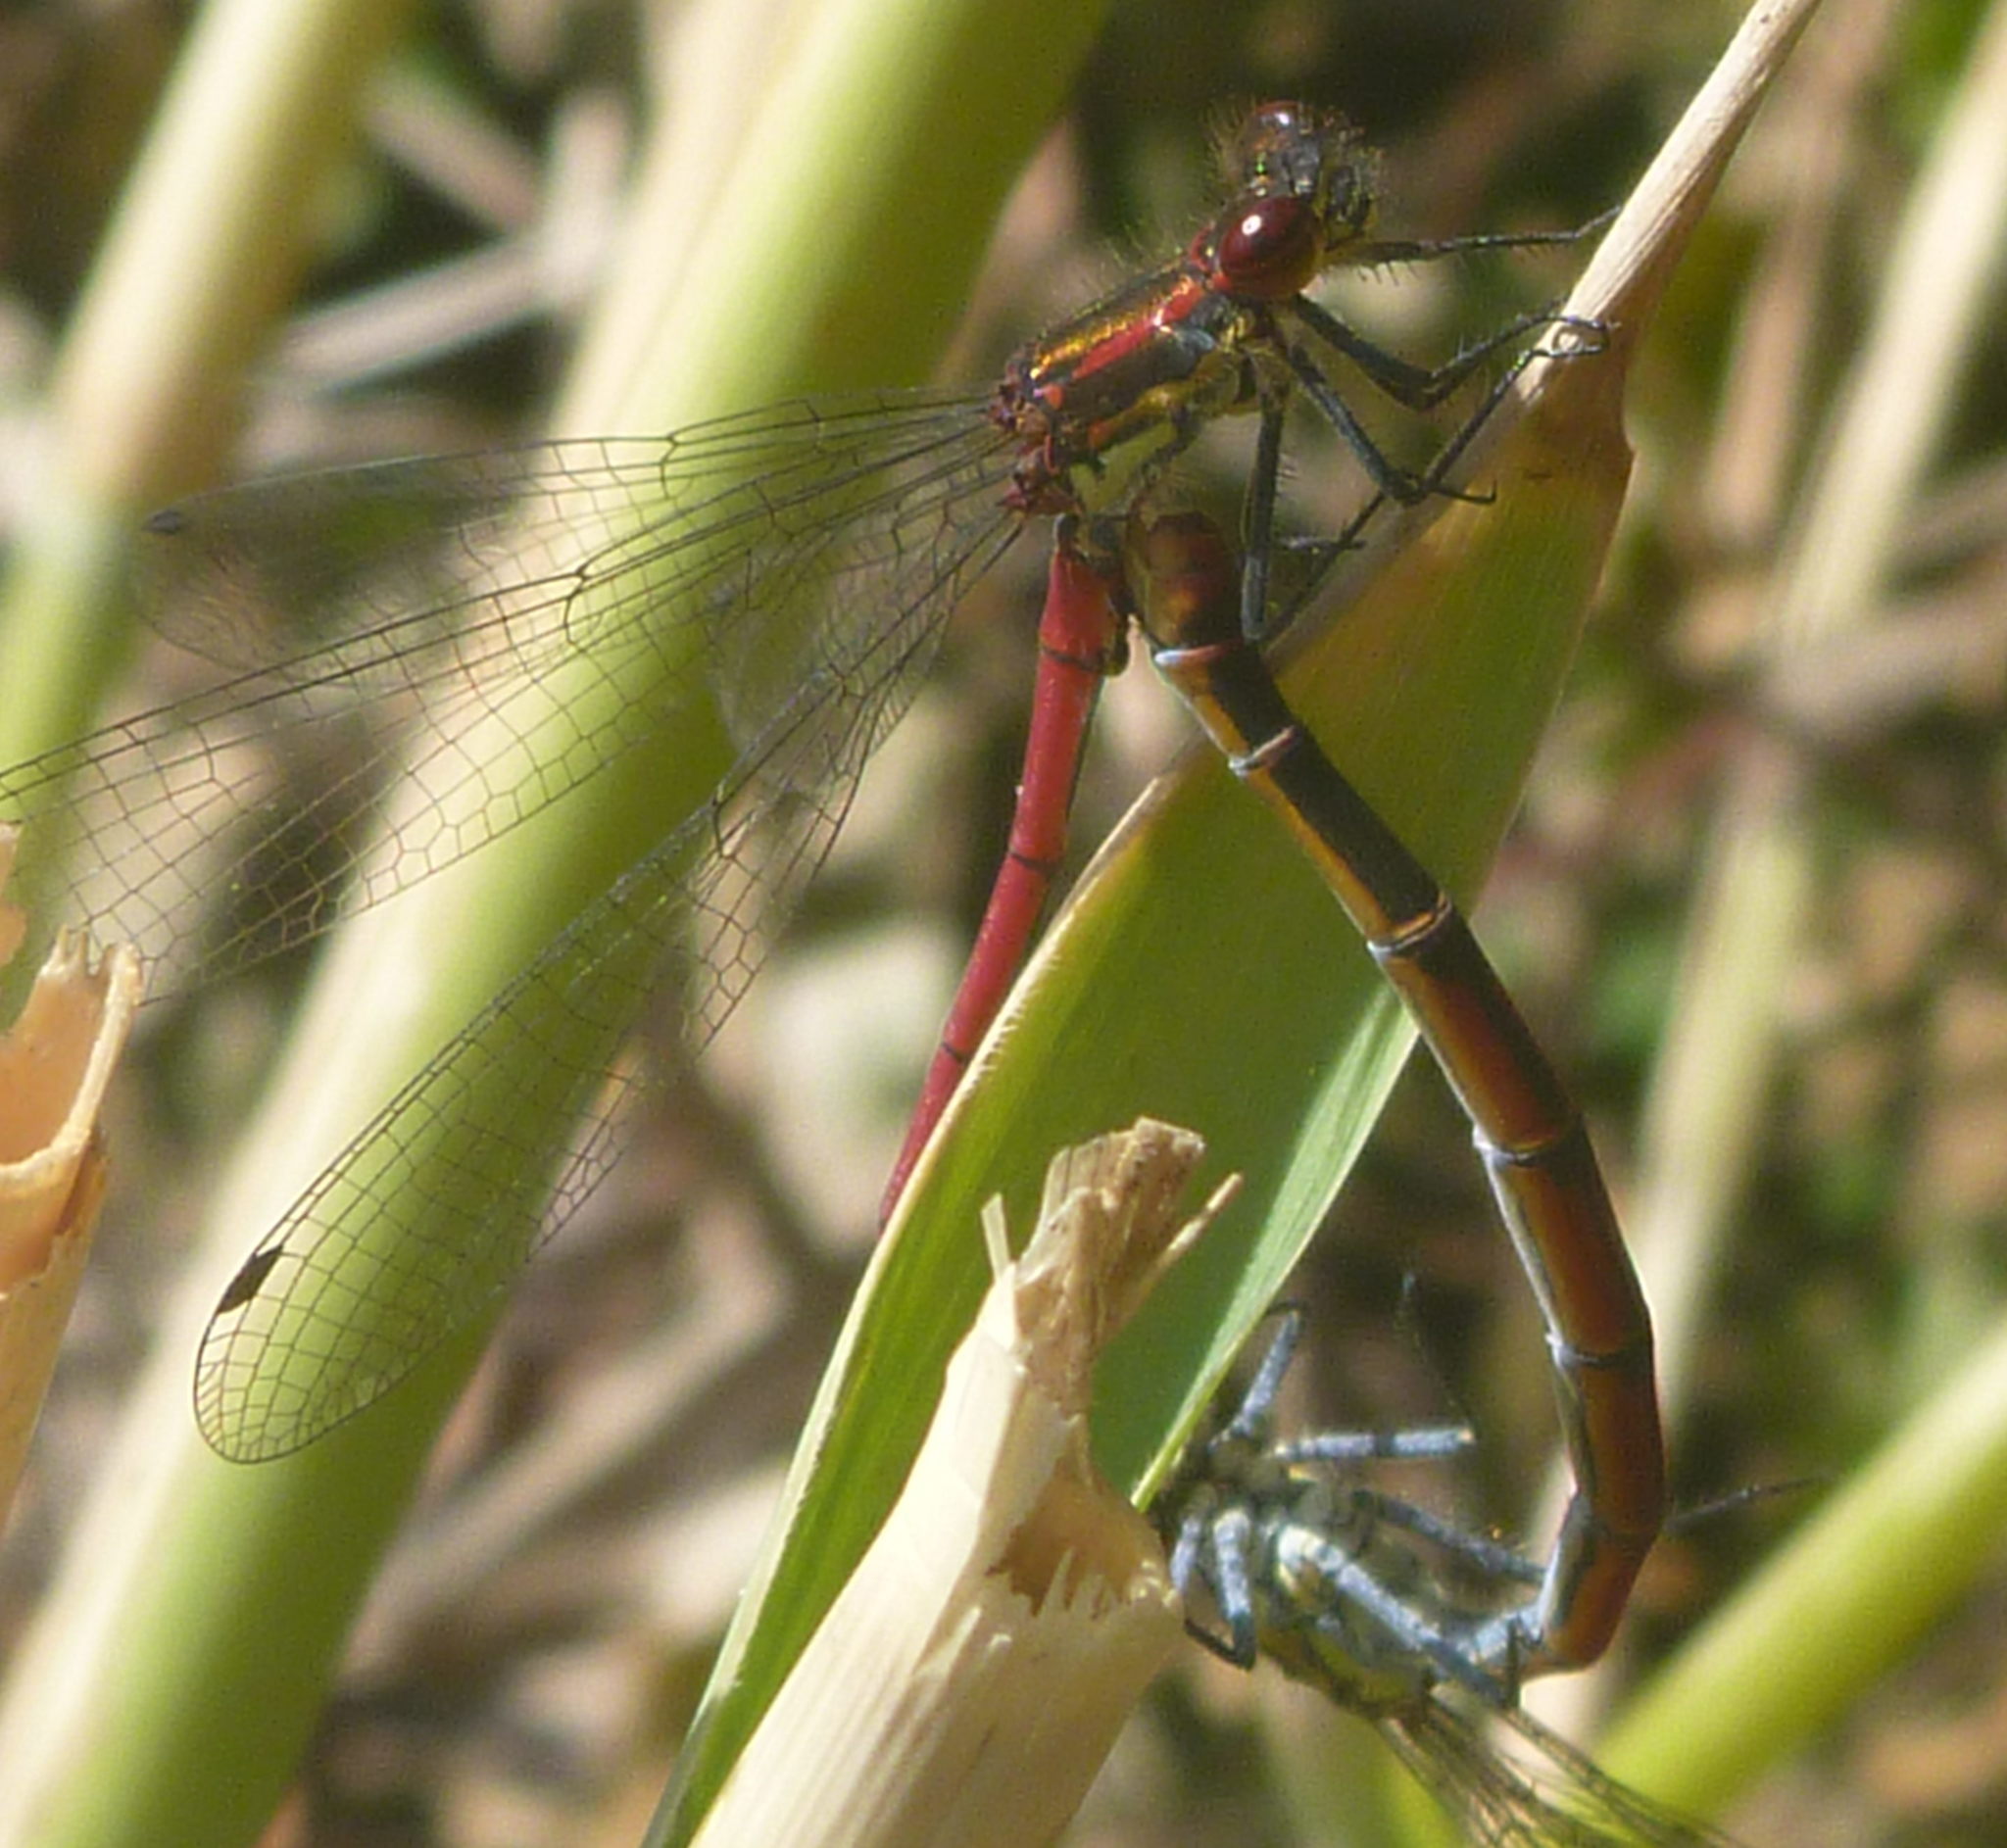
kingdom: Animalia
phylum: Arthropoda
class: Insecta
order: Odonata
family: Coenagrionidae
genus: Pyrrhosoma
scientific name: Pyrrhosoma nymphula
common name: Large red damsel
